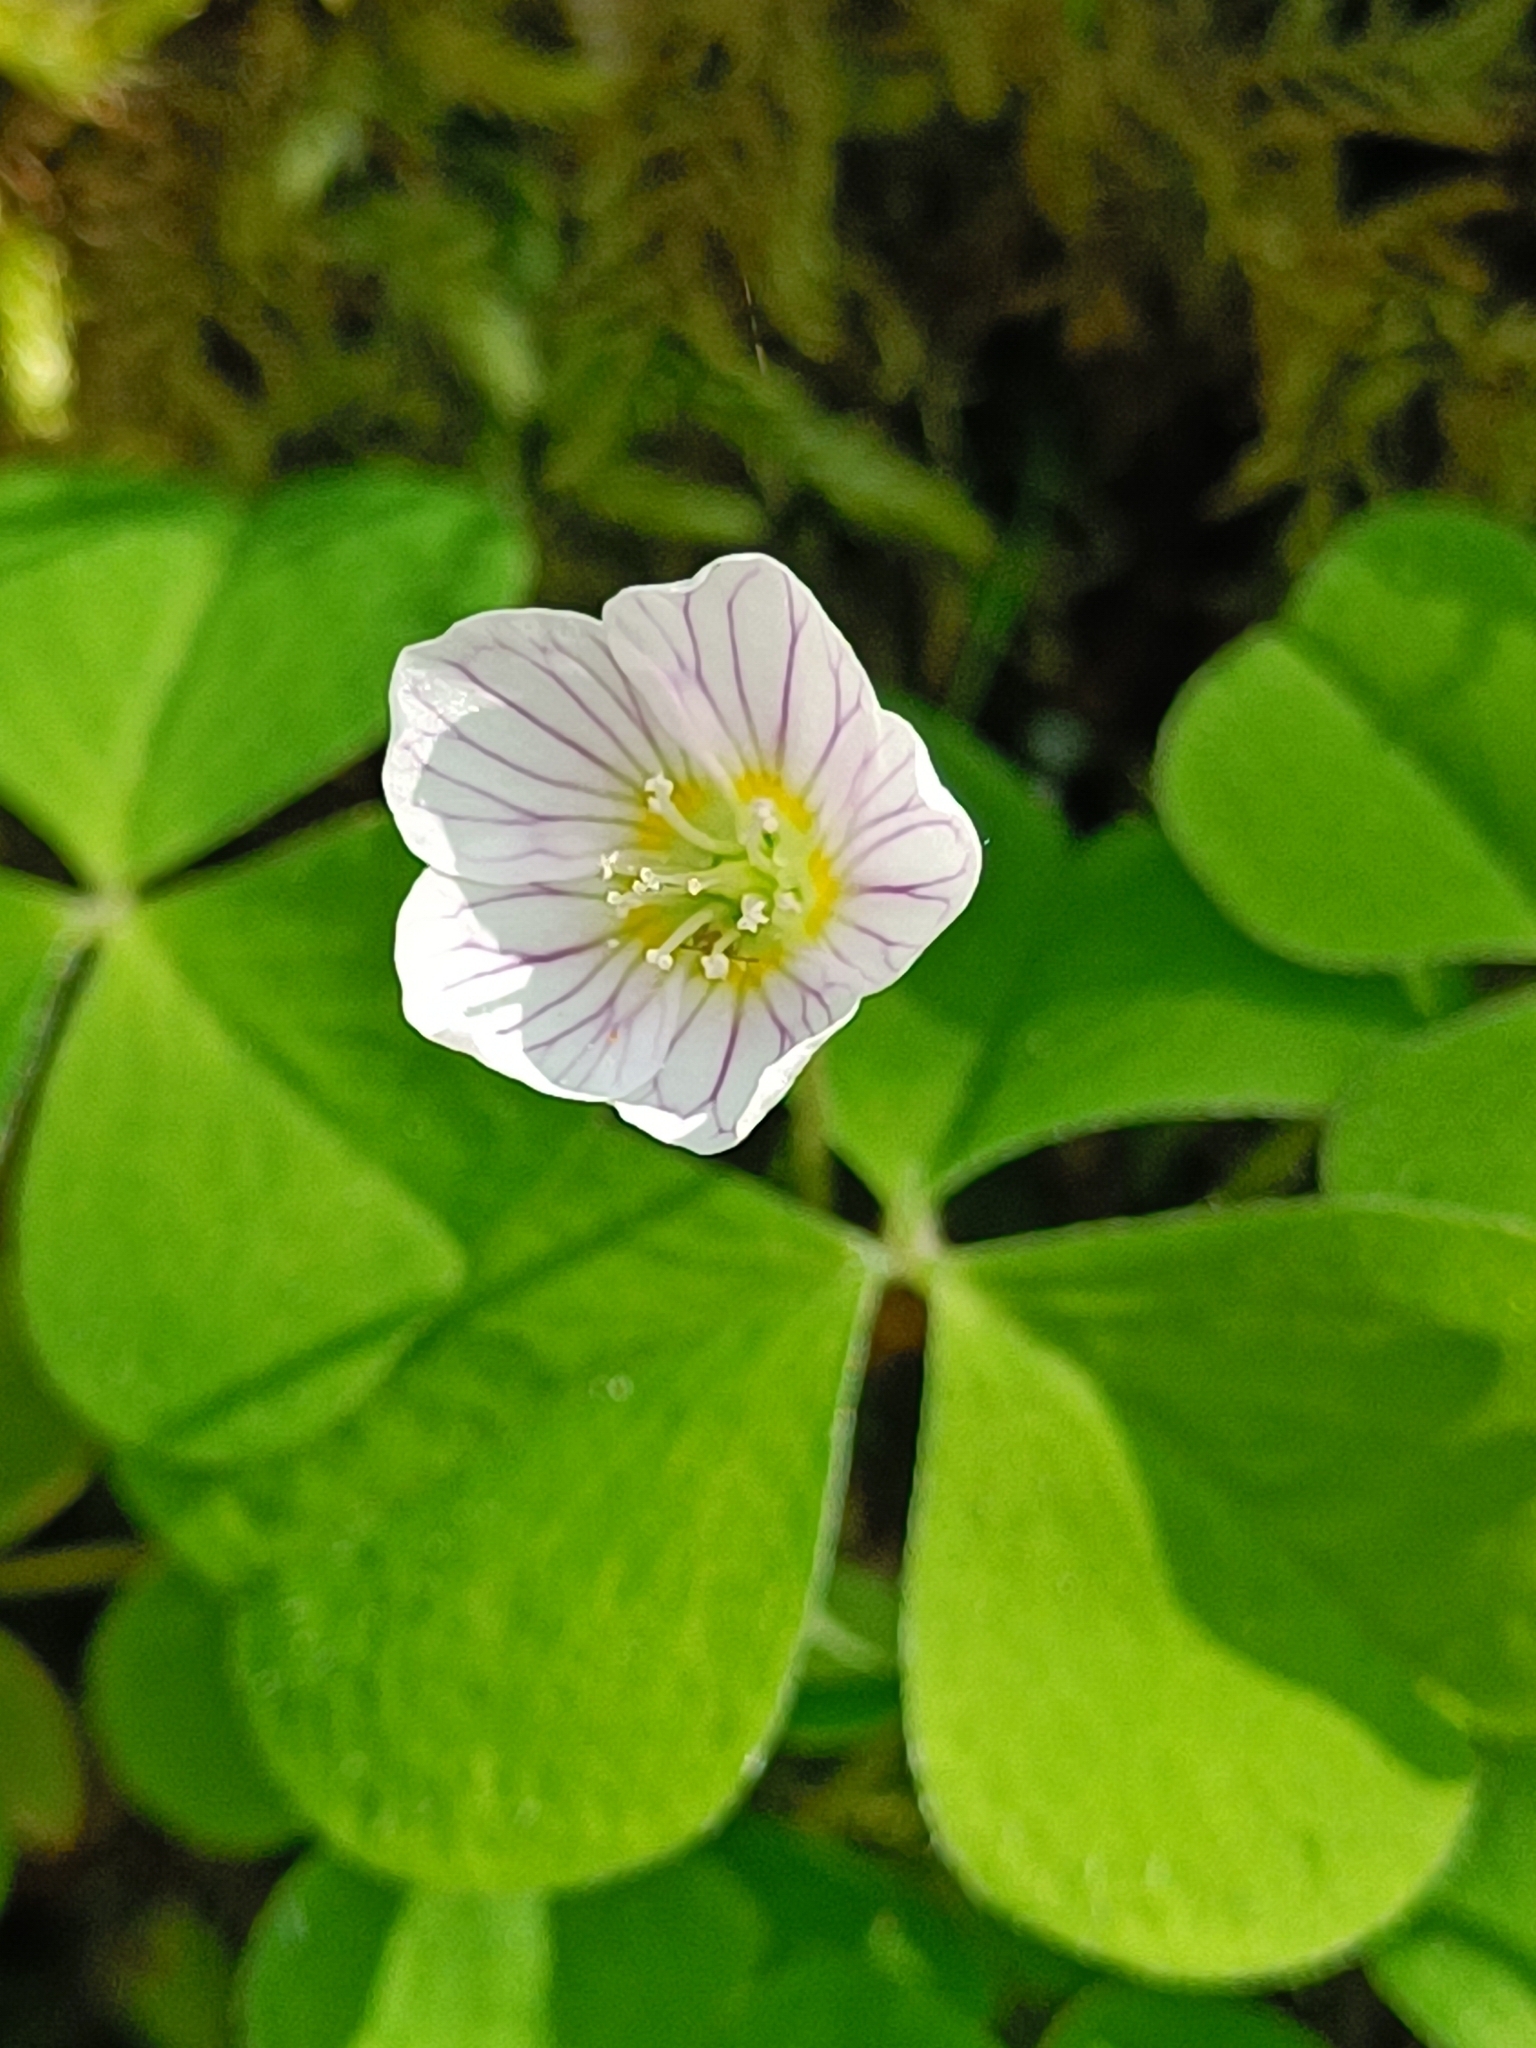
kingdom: Plantae
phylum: Tracheophyta
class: Magnoliopsida
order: Oxalidales
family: Oxalidaceae
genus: Oxalis
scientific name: Oxalis acetosella
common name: Wood-sorrel
